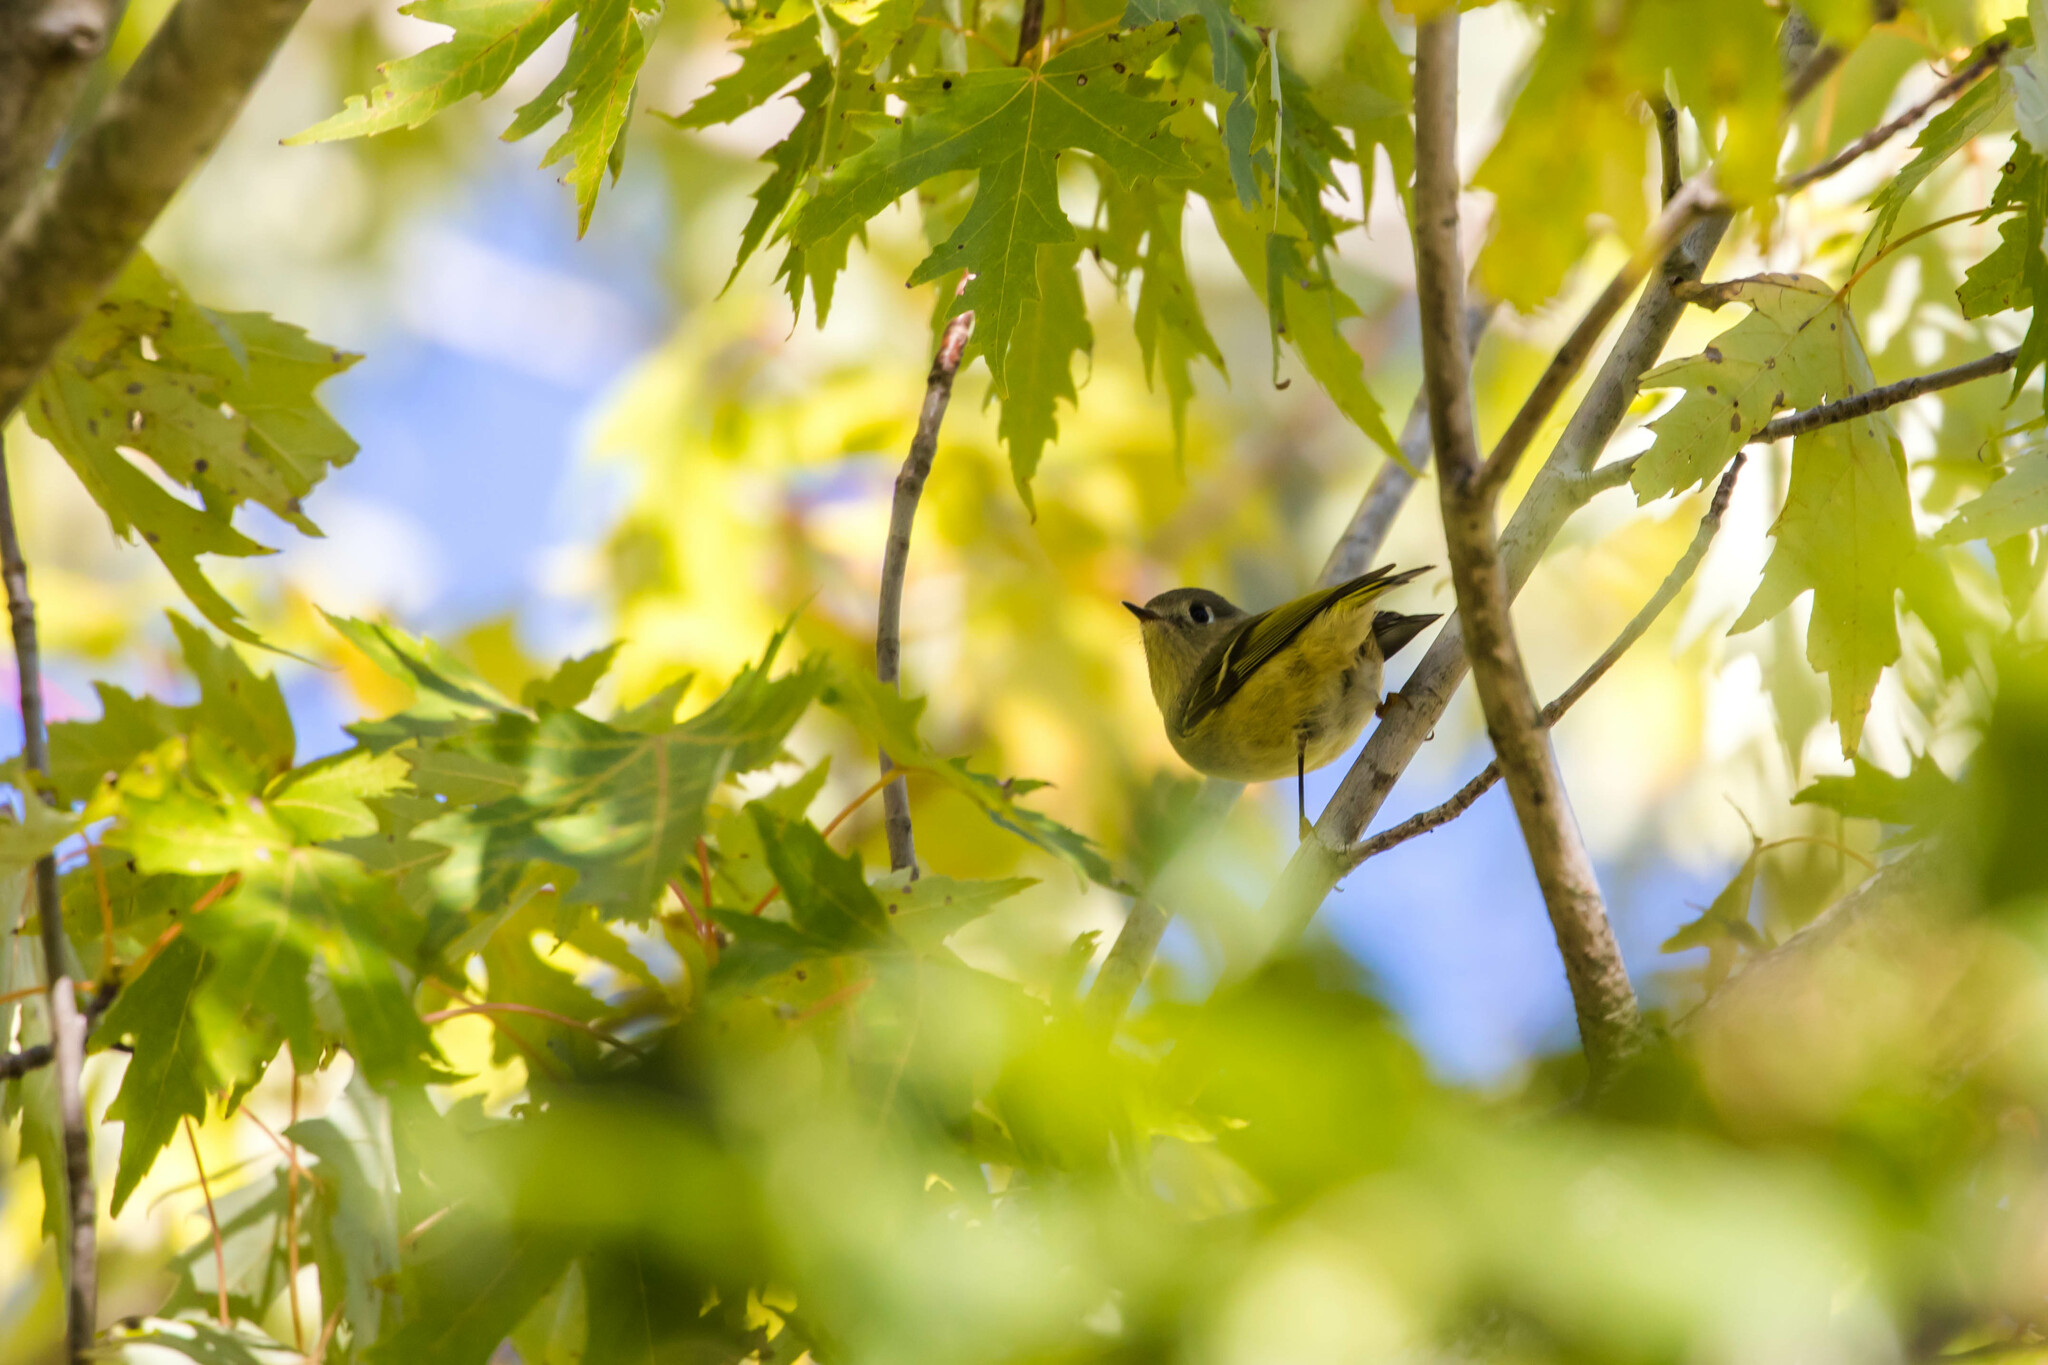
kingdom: Animalia
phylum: Chordata
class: Aves
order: Passeriformes
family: Regulidae
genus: Regulus
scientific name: Regulus calendula
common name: Ruby-crowned kinglet
